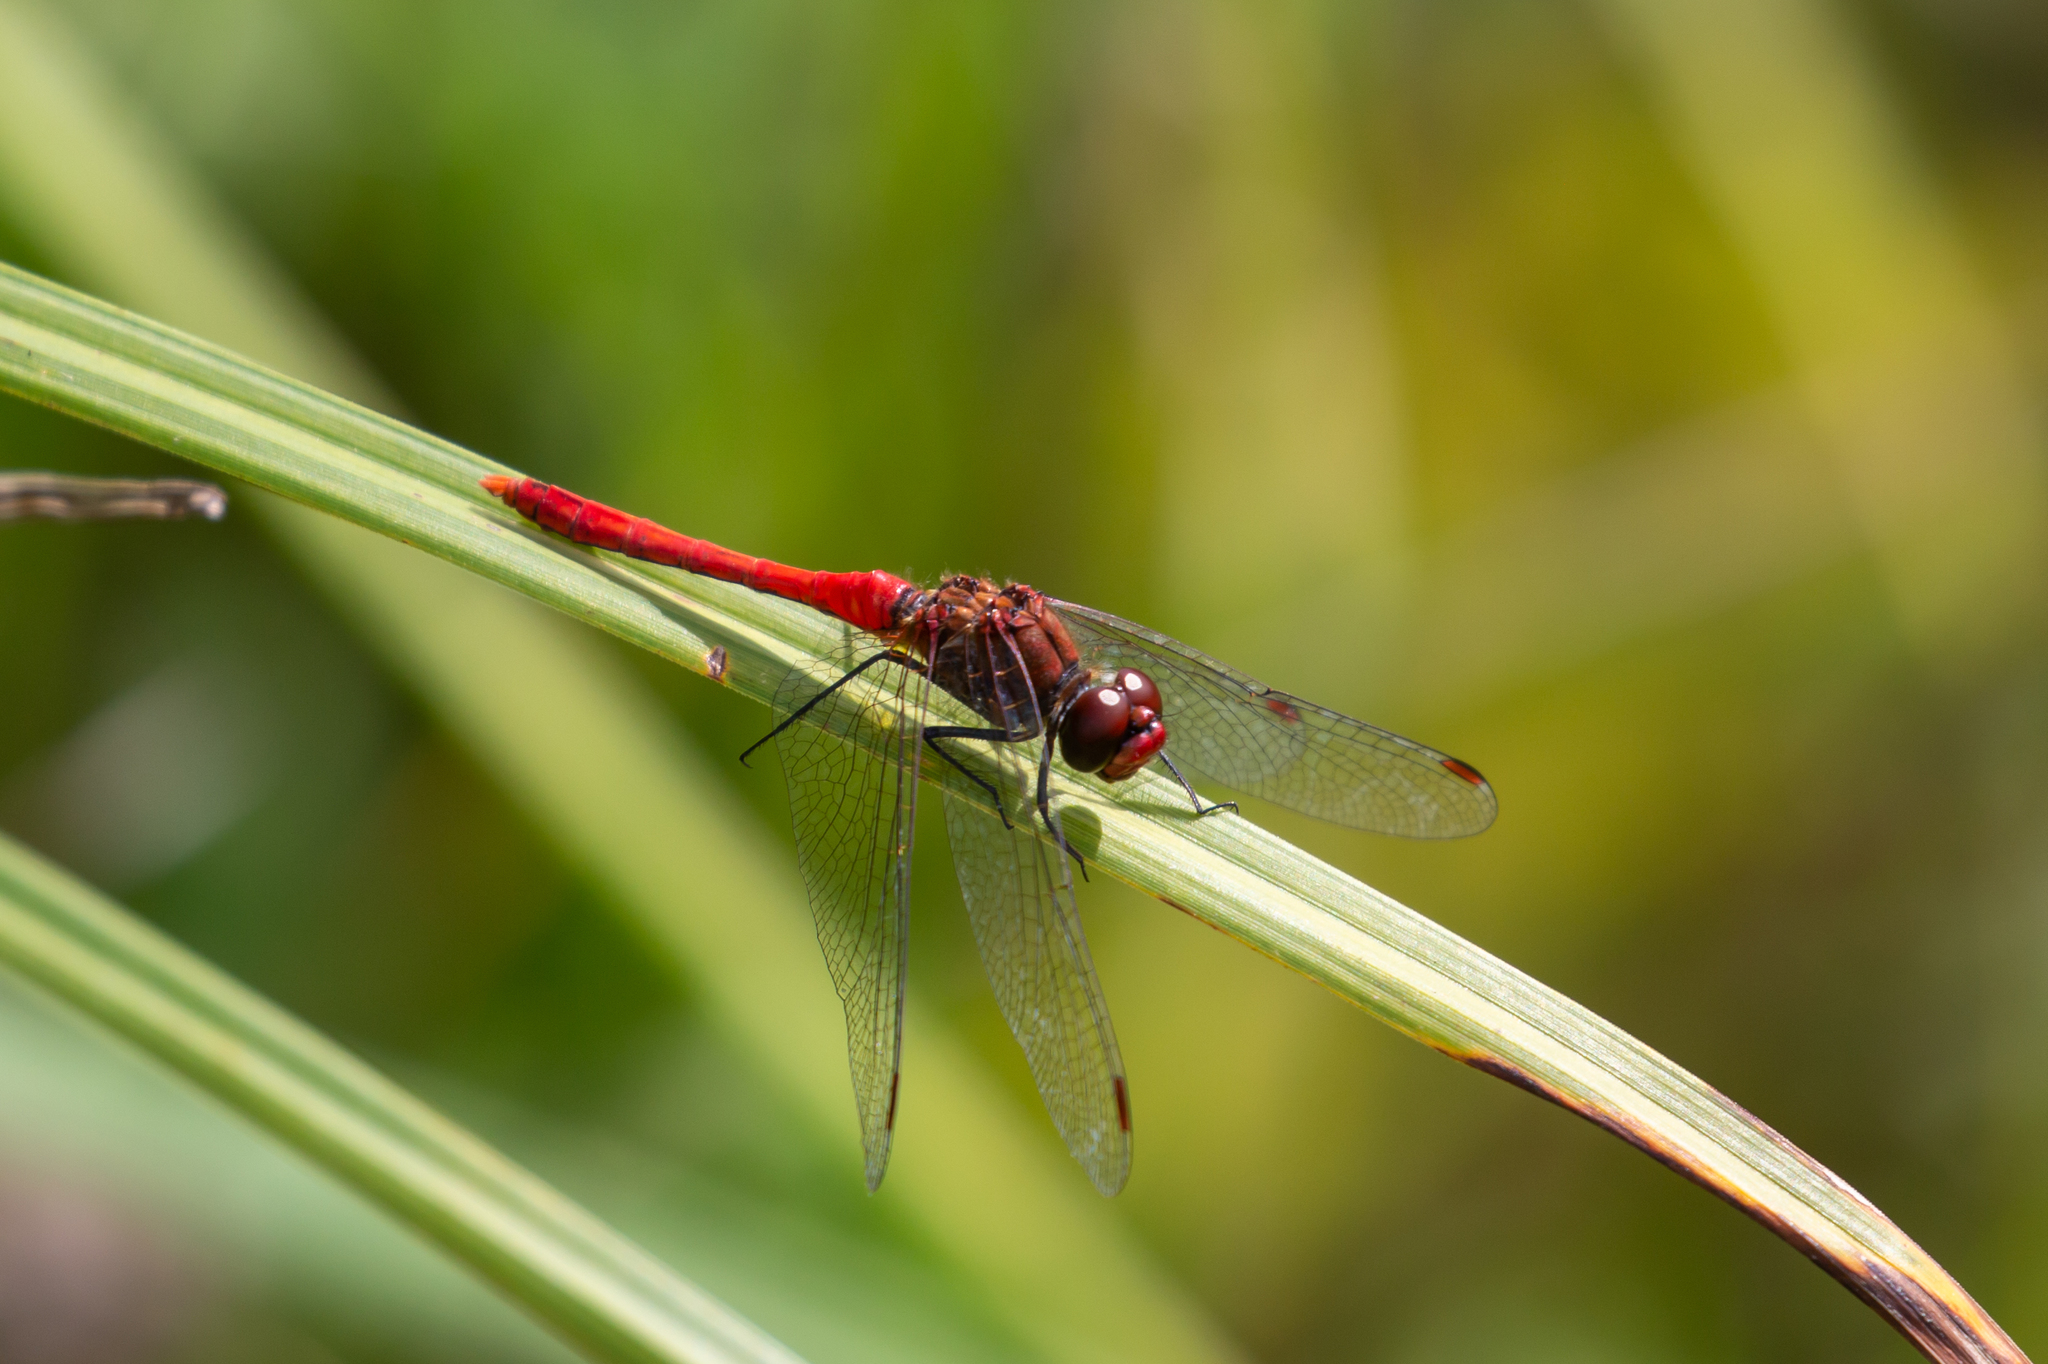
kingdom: Animalia
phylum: Arthropoda
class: Insecta
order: Odonata
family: Libellulidae
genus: Sympetrum
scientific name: Sympetrum sanguineum
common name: Ruddy darter
